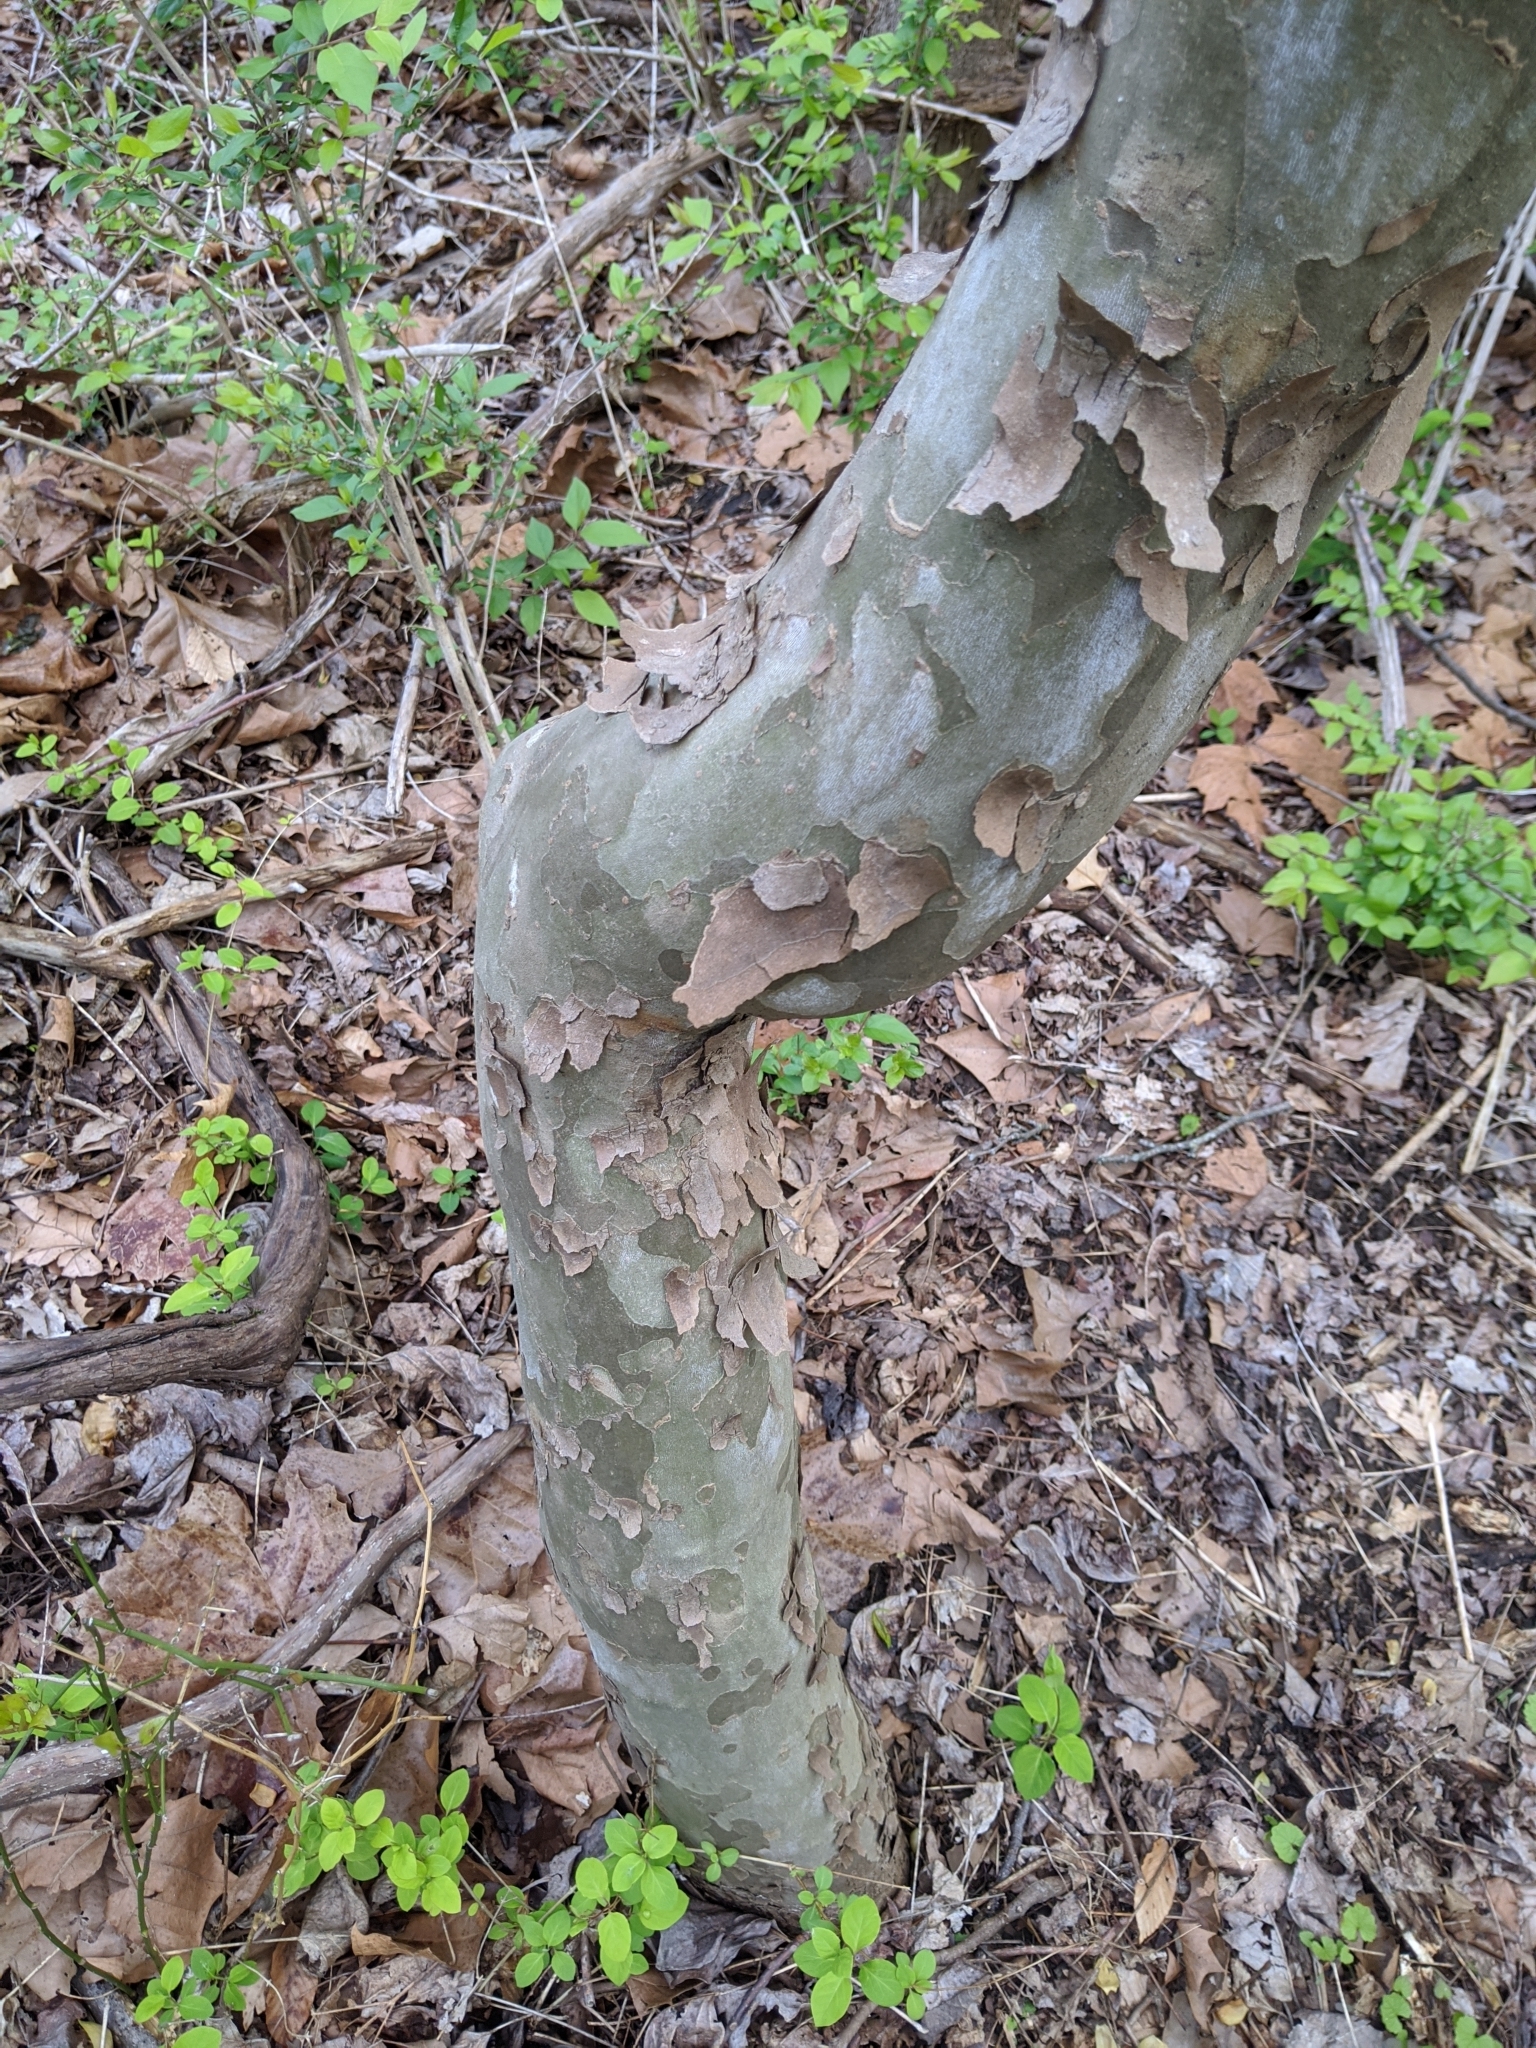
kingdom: Plantae
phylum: Tracheophyta
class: Magnoliopsida
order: Proteales
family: Platanaceae
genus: Platanus
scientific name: Platanus occidentalis
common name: American sycamore
